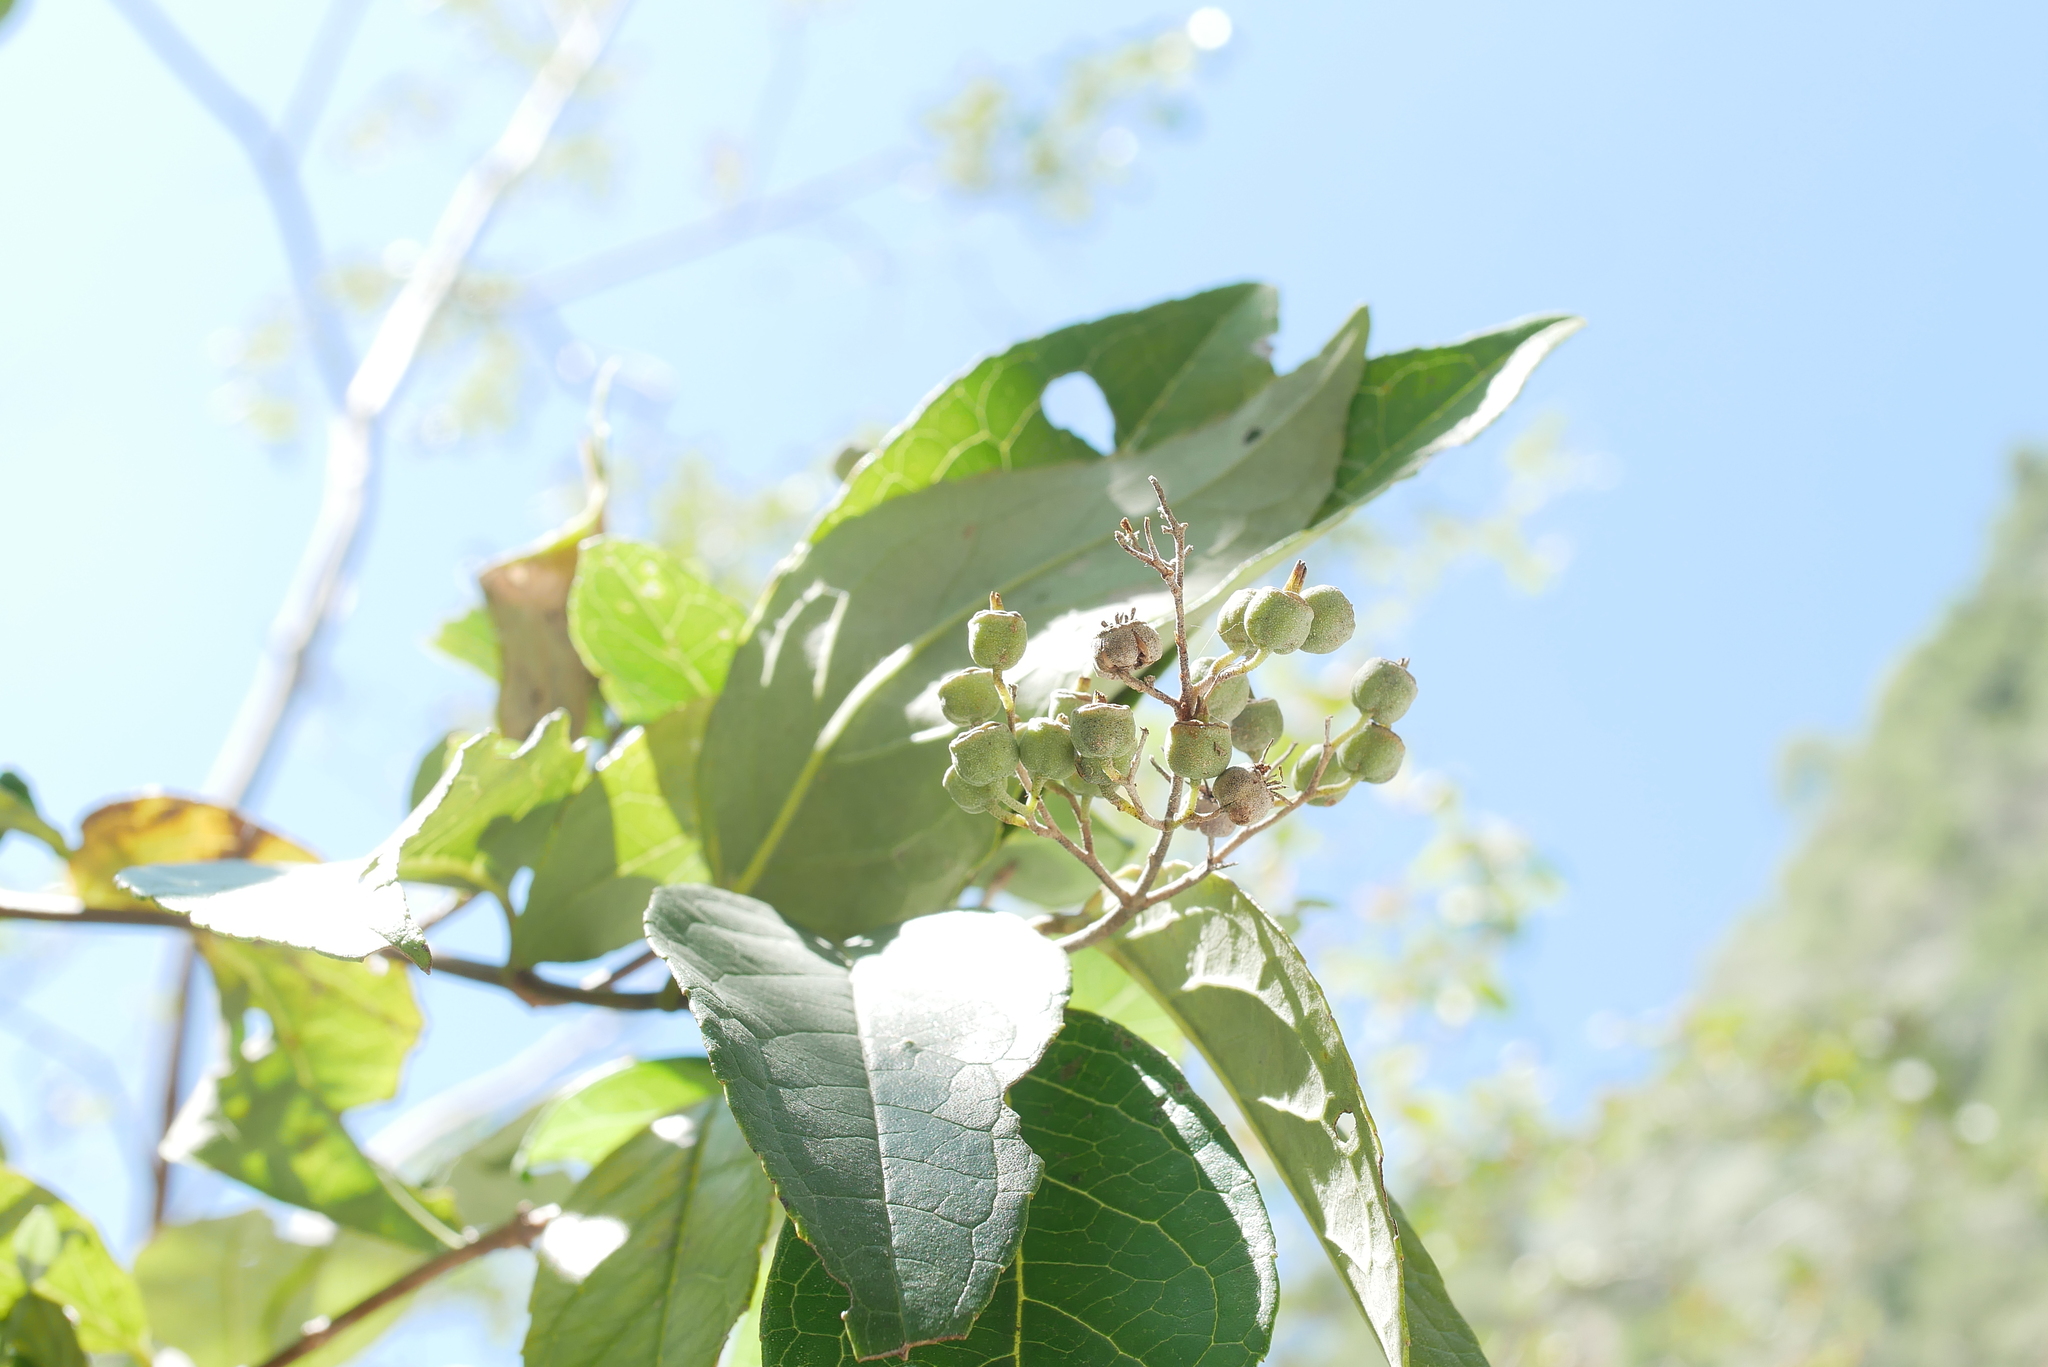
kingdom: Plantae
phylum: Tracheophyta
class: Magnoliopsida
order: Cornales
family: Hydrangeaceae
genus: Deutzia
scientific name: Deutzia pulchra
